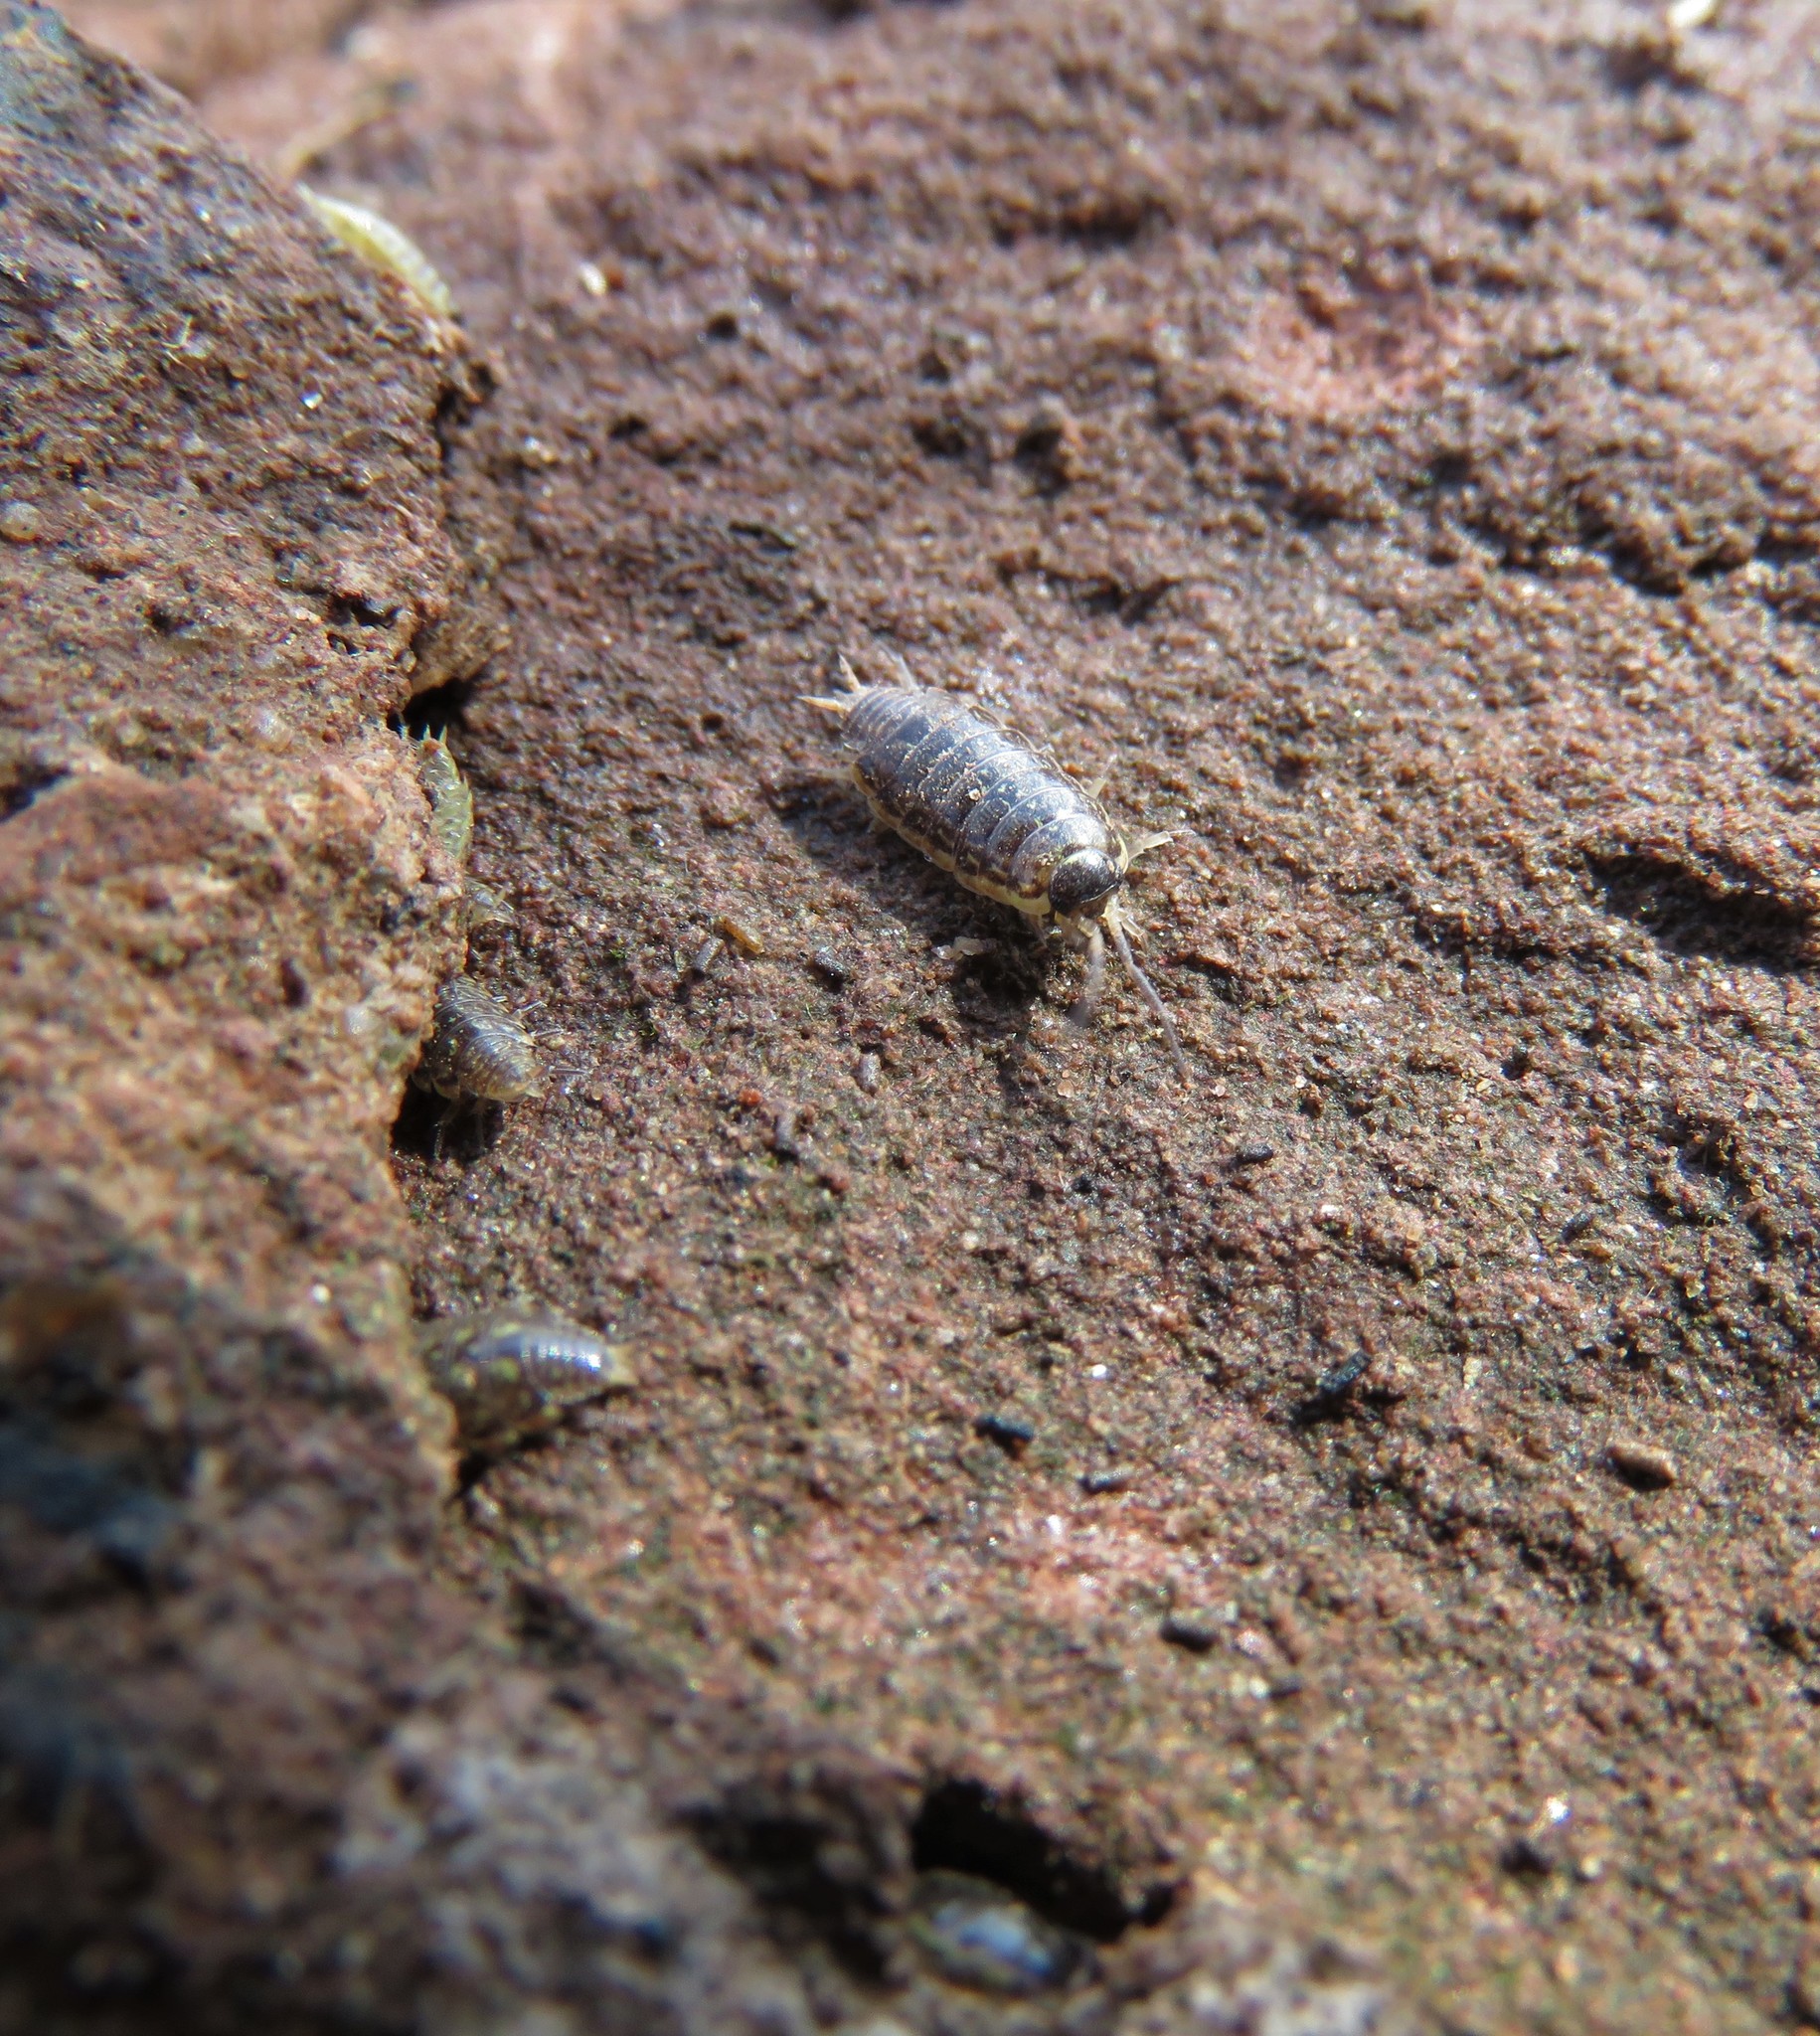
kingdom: Animalia
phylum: Arthropoda
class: Malacostraca
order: Isopoda
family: Philosciidae
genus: Philoscia
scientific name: Philoscia muscorum
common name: Common striped woodlouse
